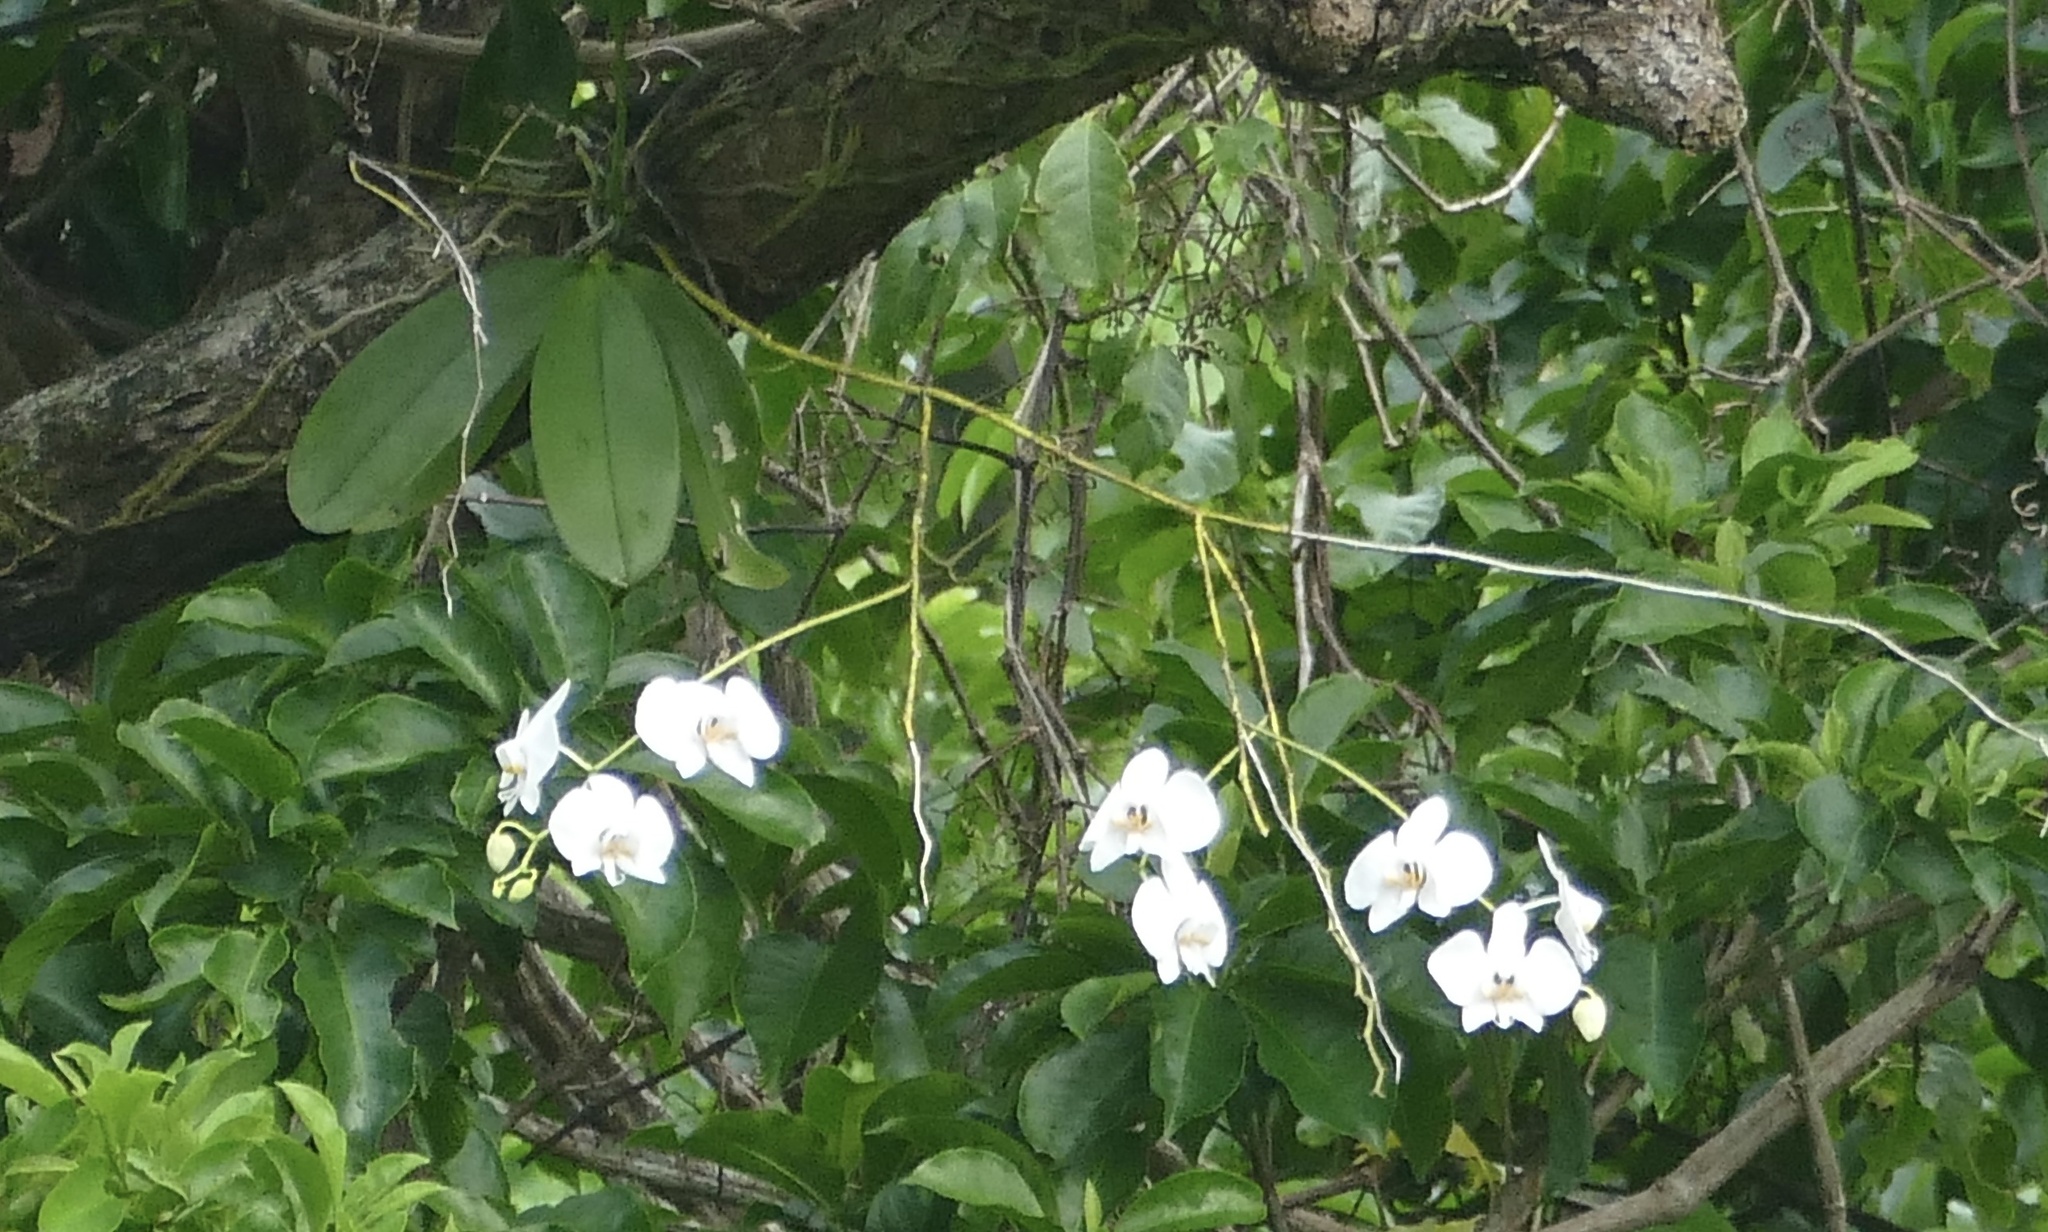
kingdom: Plantae
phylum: Tracheophyta
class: Liliopsida
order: Asparagales
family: Orchidaceae
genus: Phalaenopsis
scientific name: Phalaenopsis amabilis
